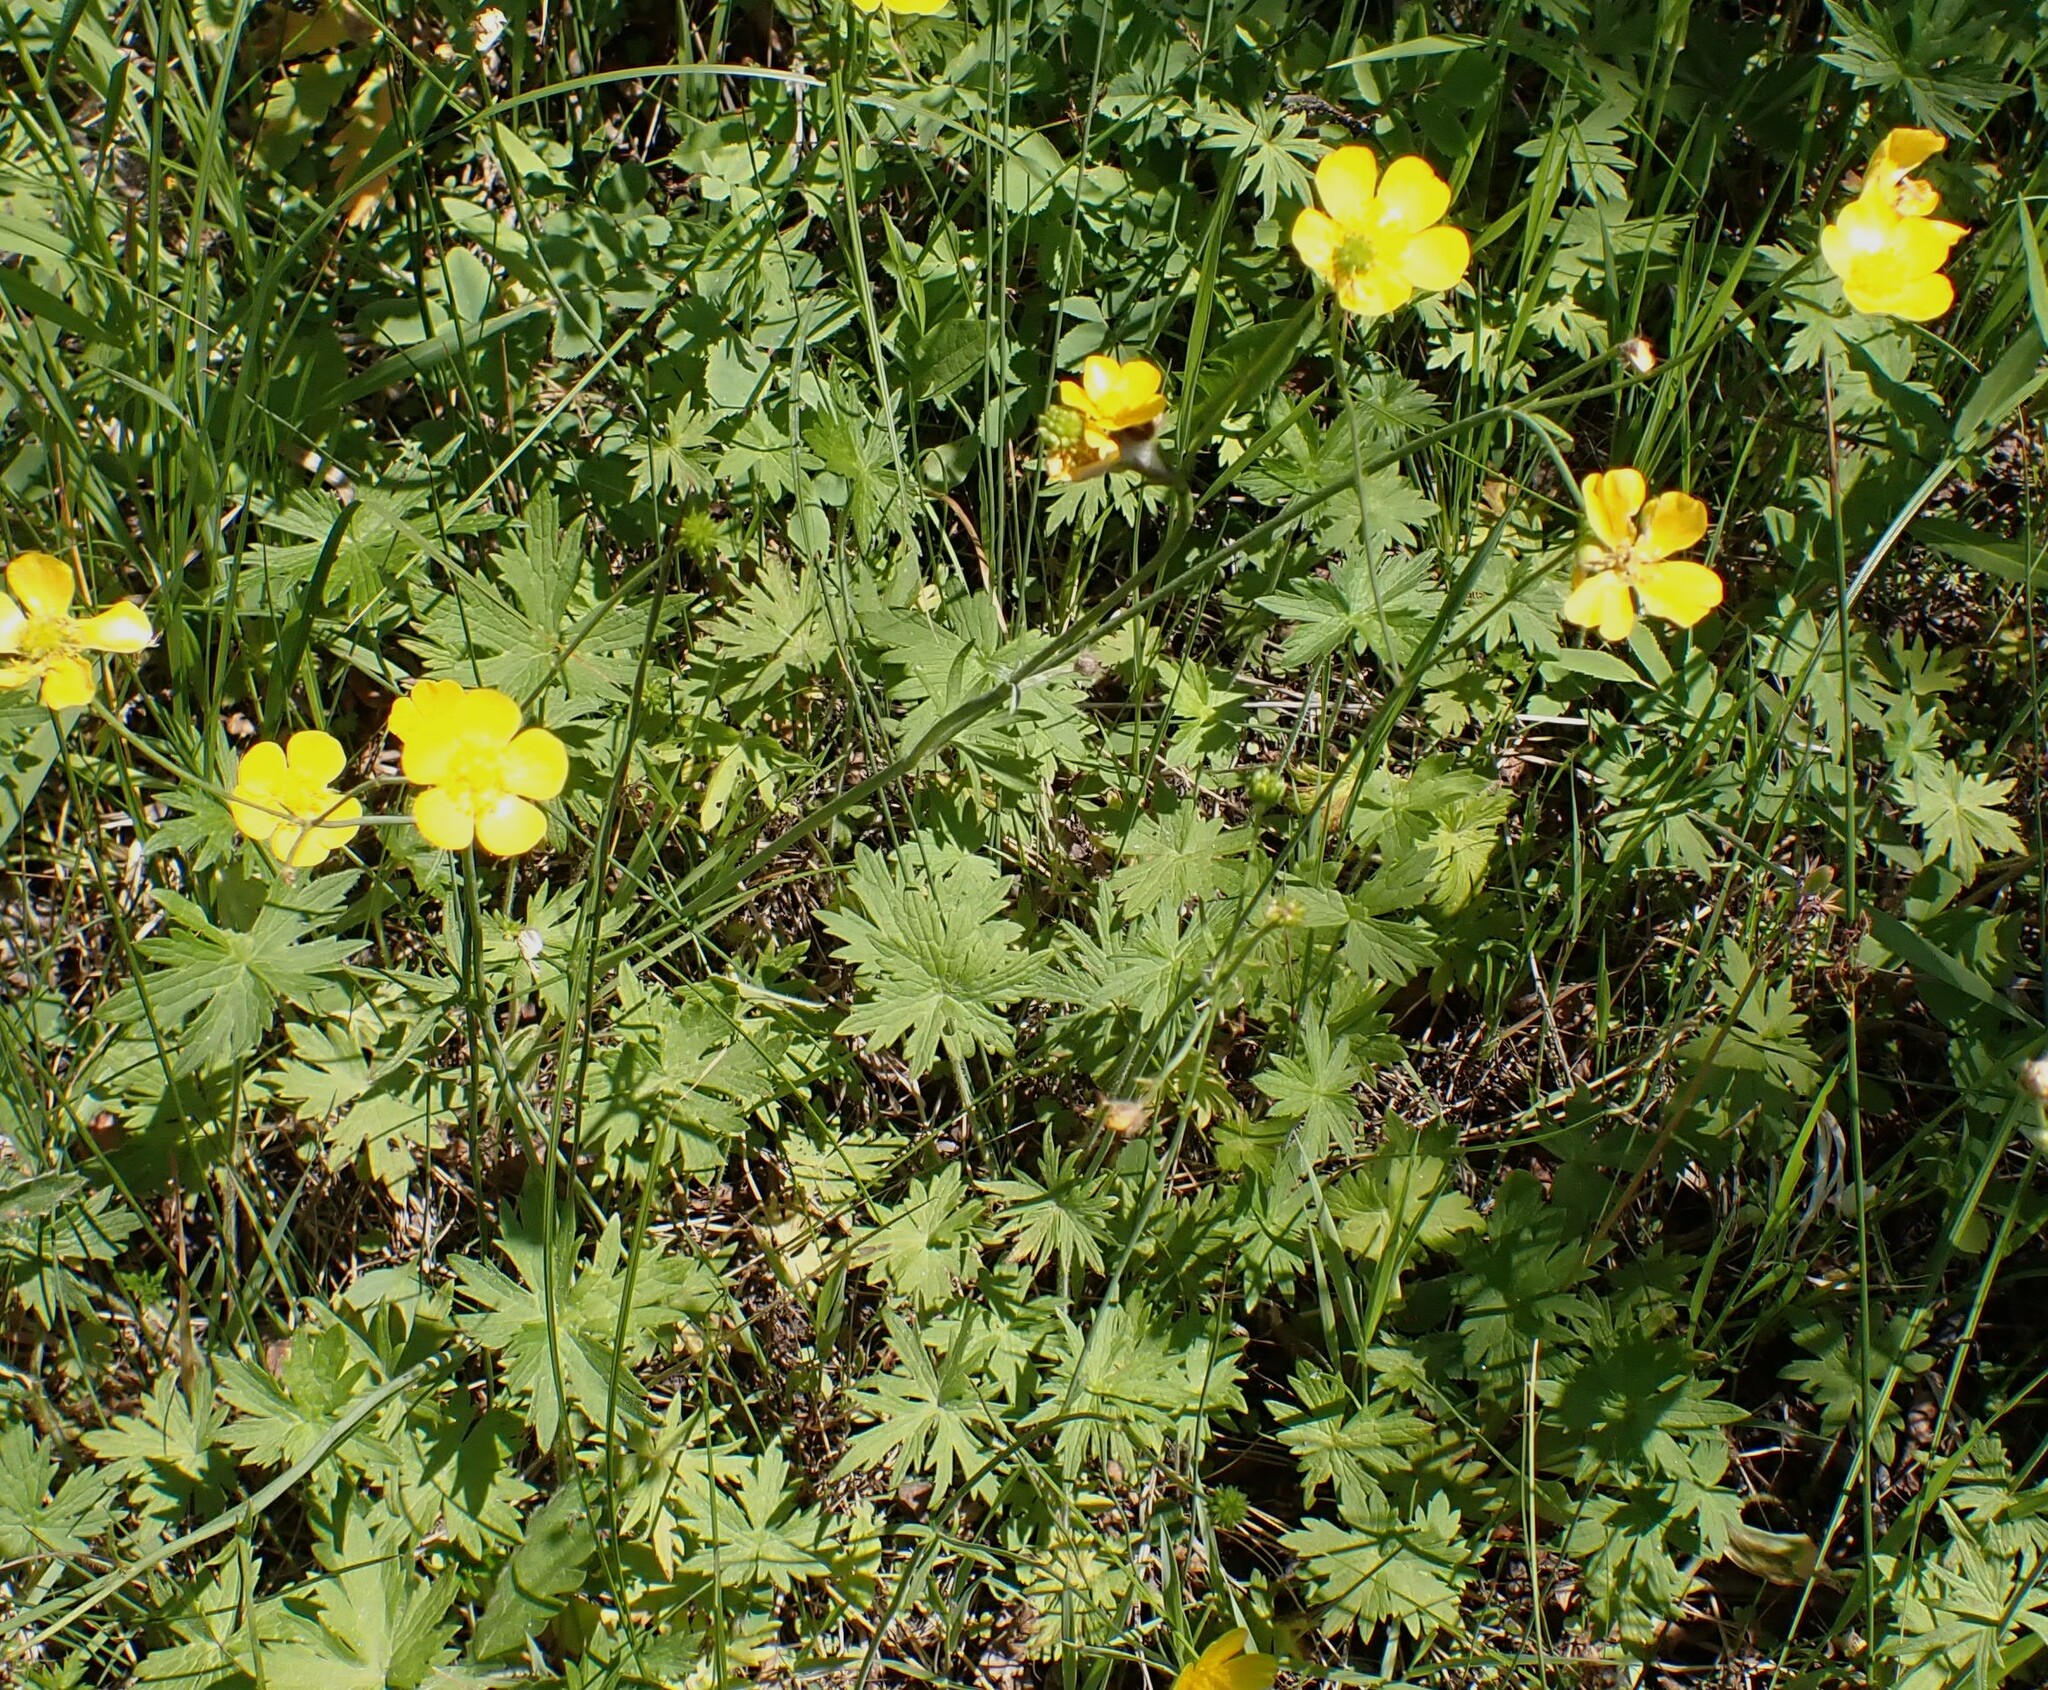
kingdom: Plantae
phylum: Tracheophyta
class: Magnoliopsida
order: Ranunculales
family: Ranunculaceae
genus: Ranunculus
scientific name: Ranunculus acris
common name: Meadow buttercup
